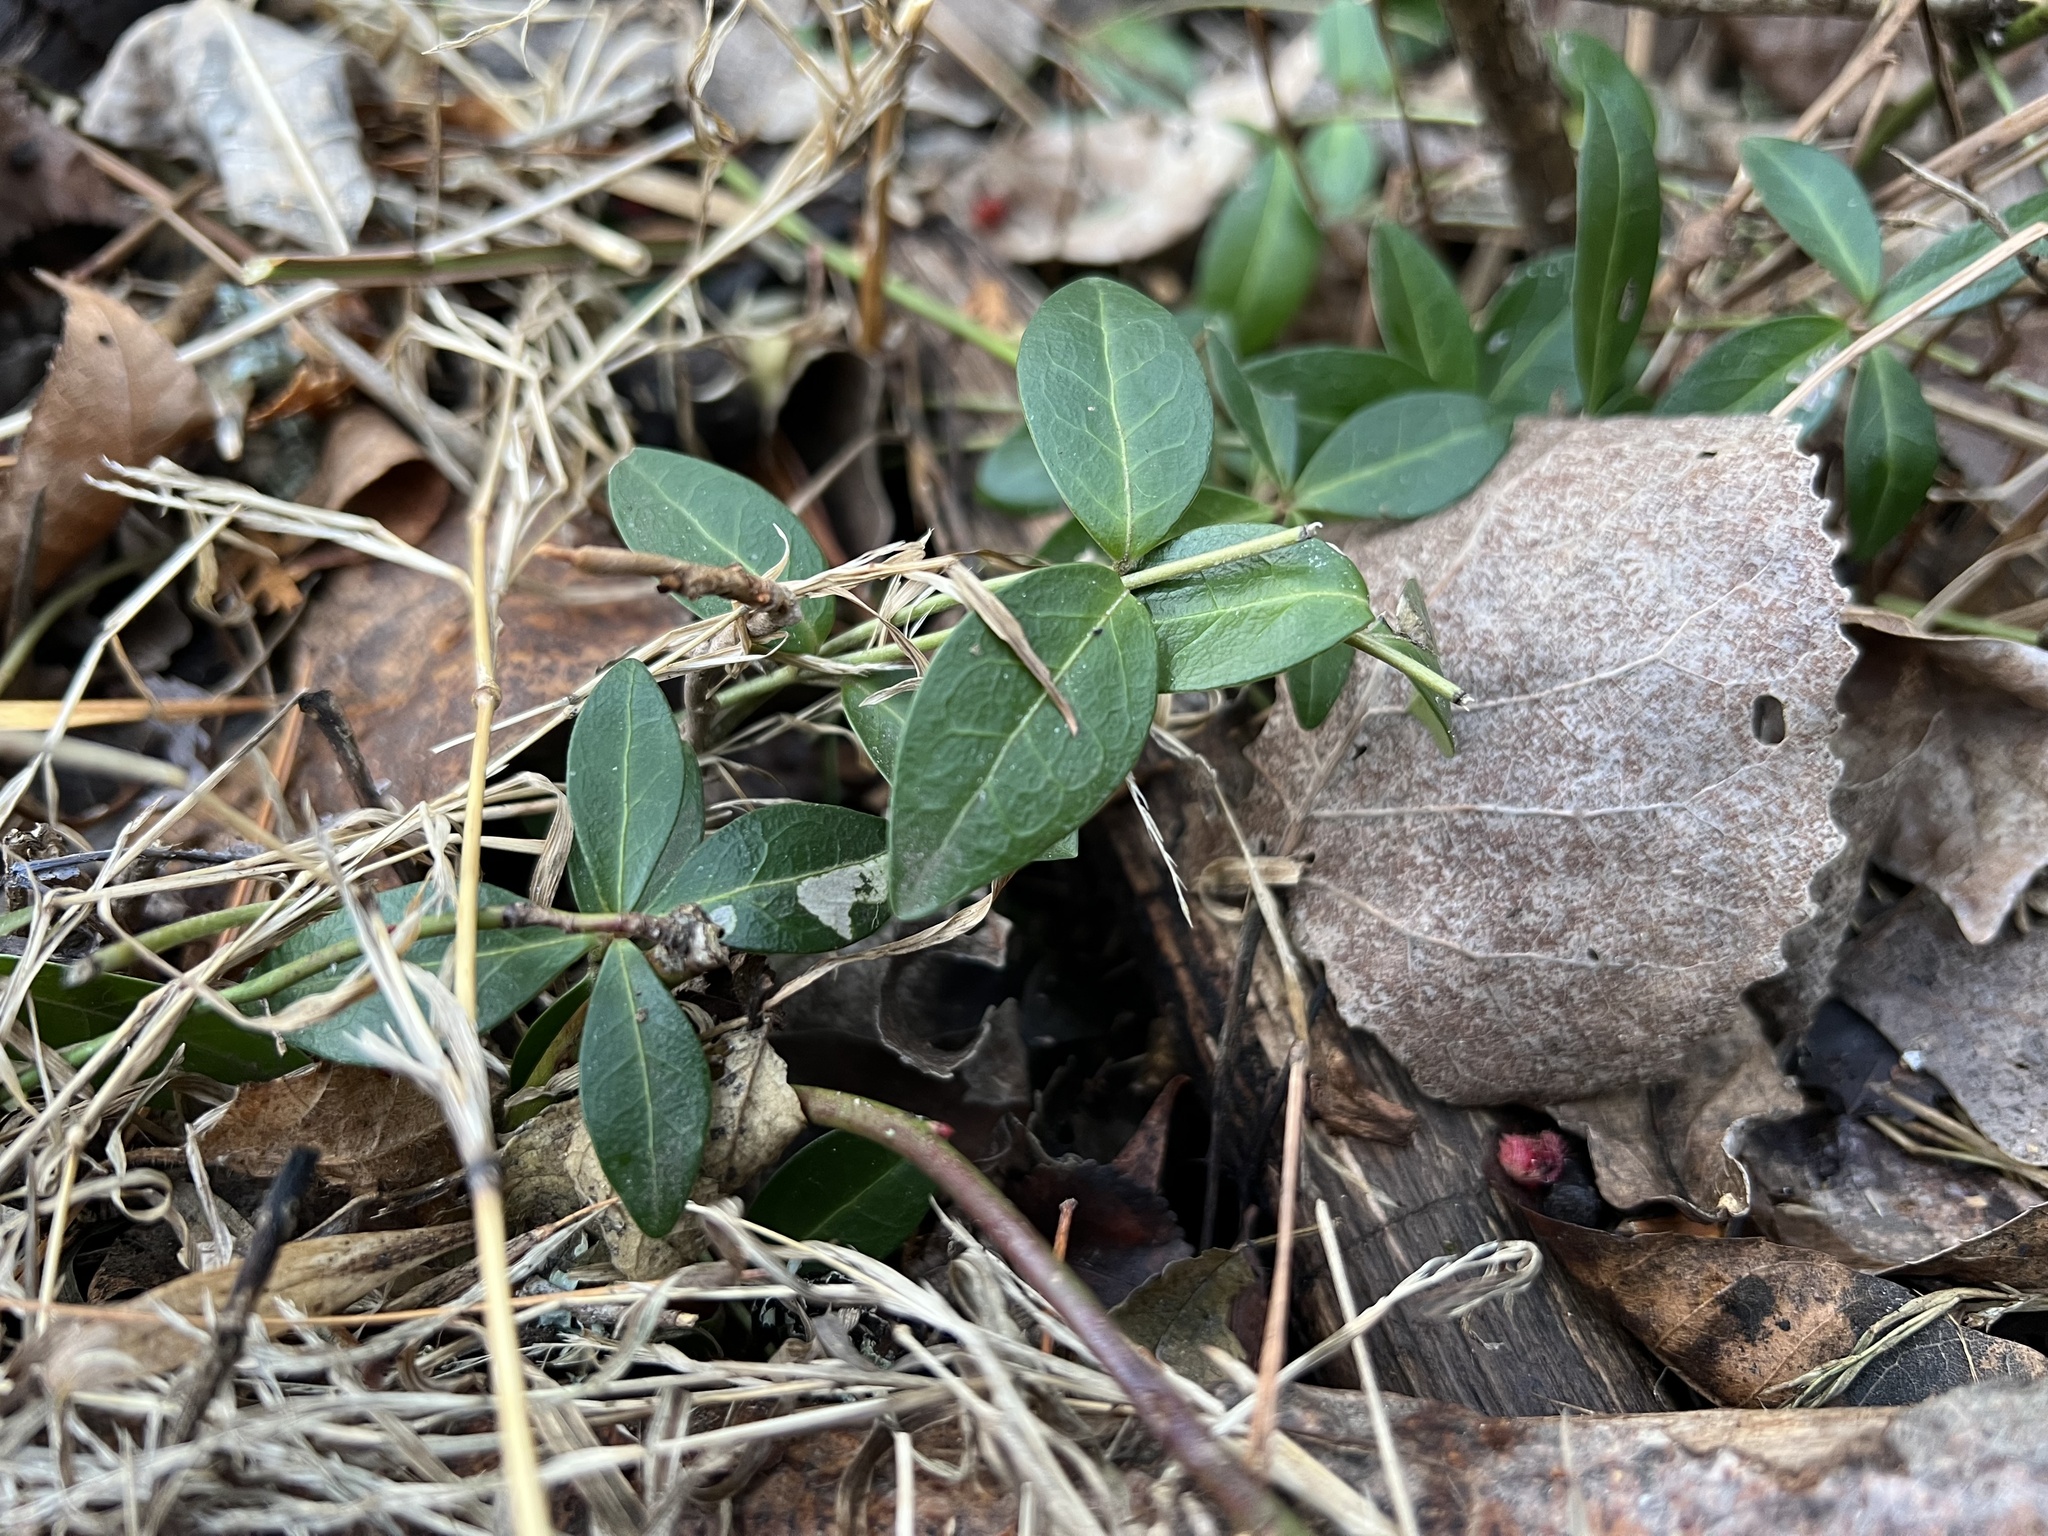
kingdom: Plantae
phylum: Tracheophyta
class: Magnoliopsida
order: Gentianales
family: Apocynaceae
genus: Vinca
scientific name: Vinca minor
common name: Lesser periwinkle
